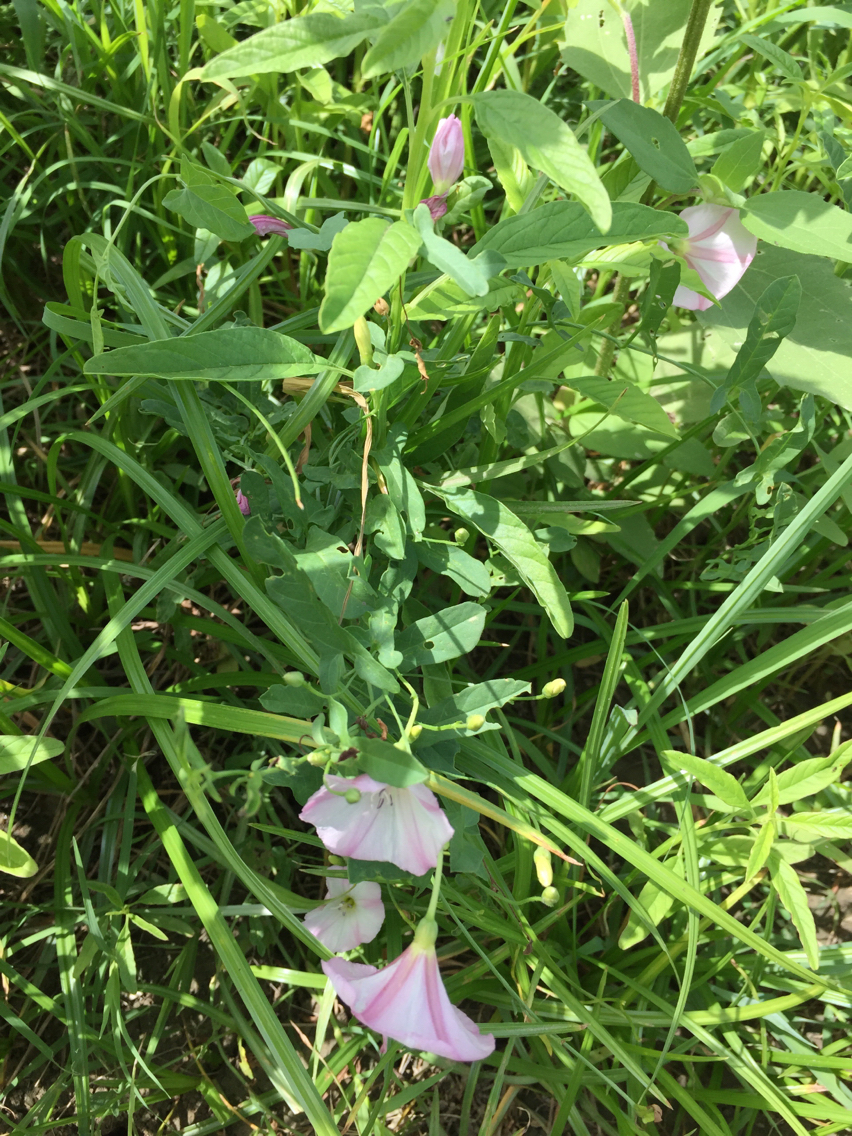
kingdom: Plantae
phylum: Tracheophyta
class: Magnoliopsida
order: Solanales
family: Convolvulaceae
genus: Convolvulus
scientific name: Convolvulus arvensis
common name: Field bindweed
